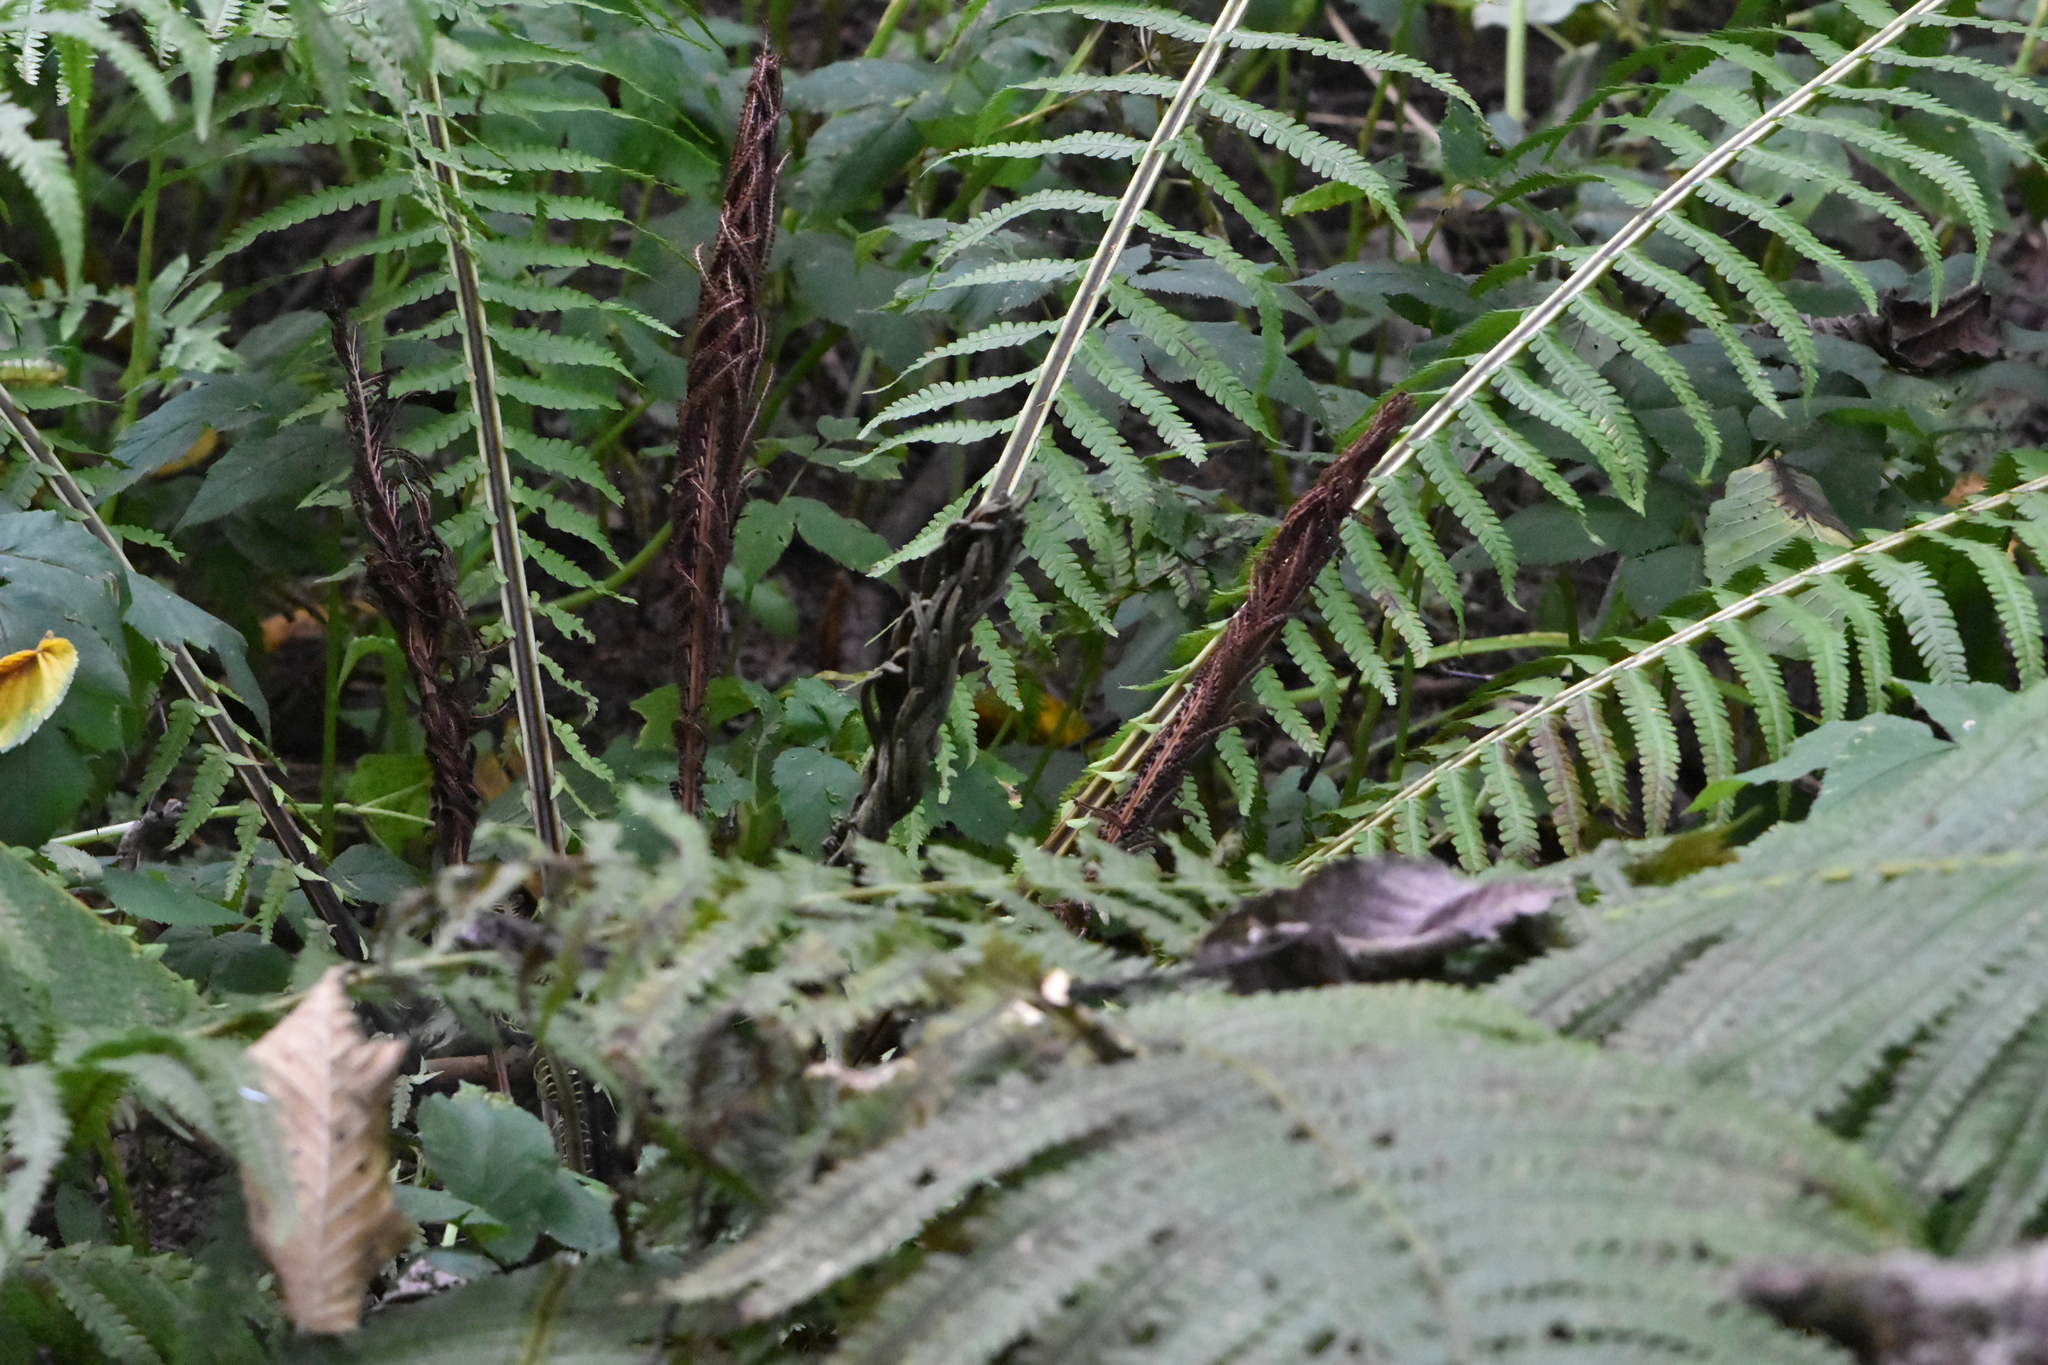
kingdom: Plantae
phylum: Tracheophyta
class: Polypodiopsida
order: Polypodiales
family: Onocleaceae
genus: Matteuccia
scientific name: Matteuccia struthiopteris
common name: Ostrich fern
